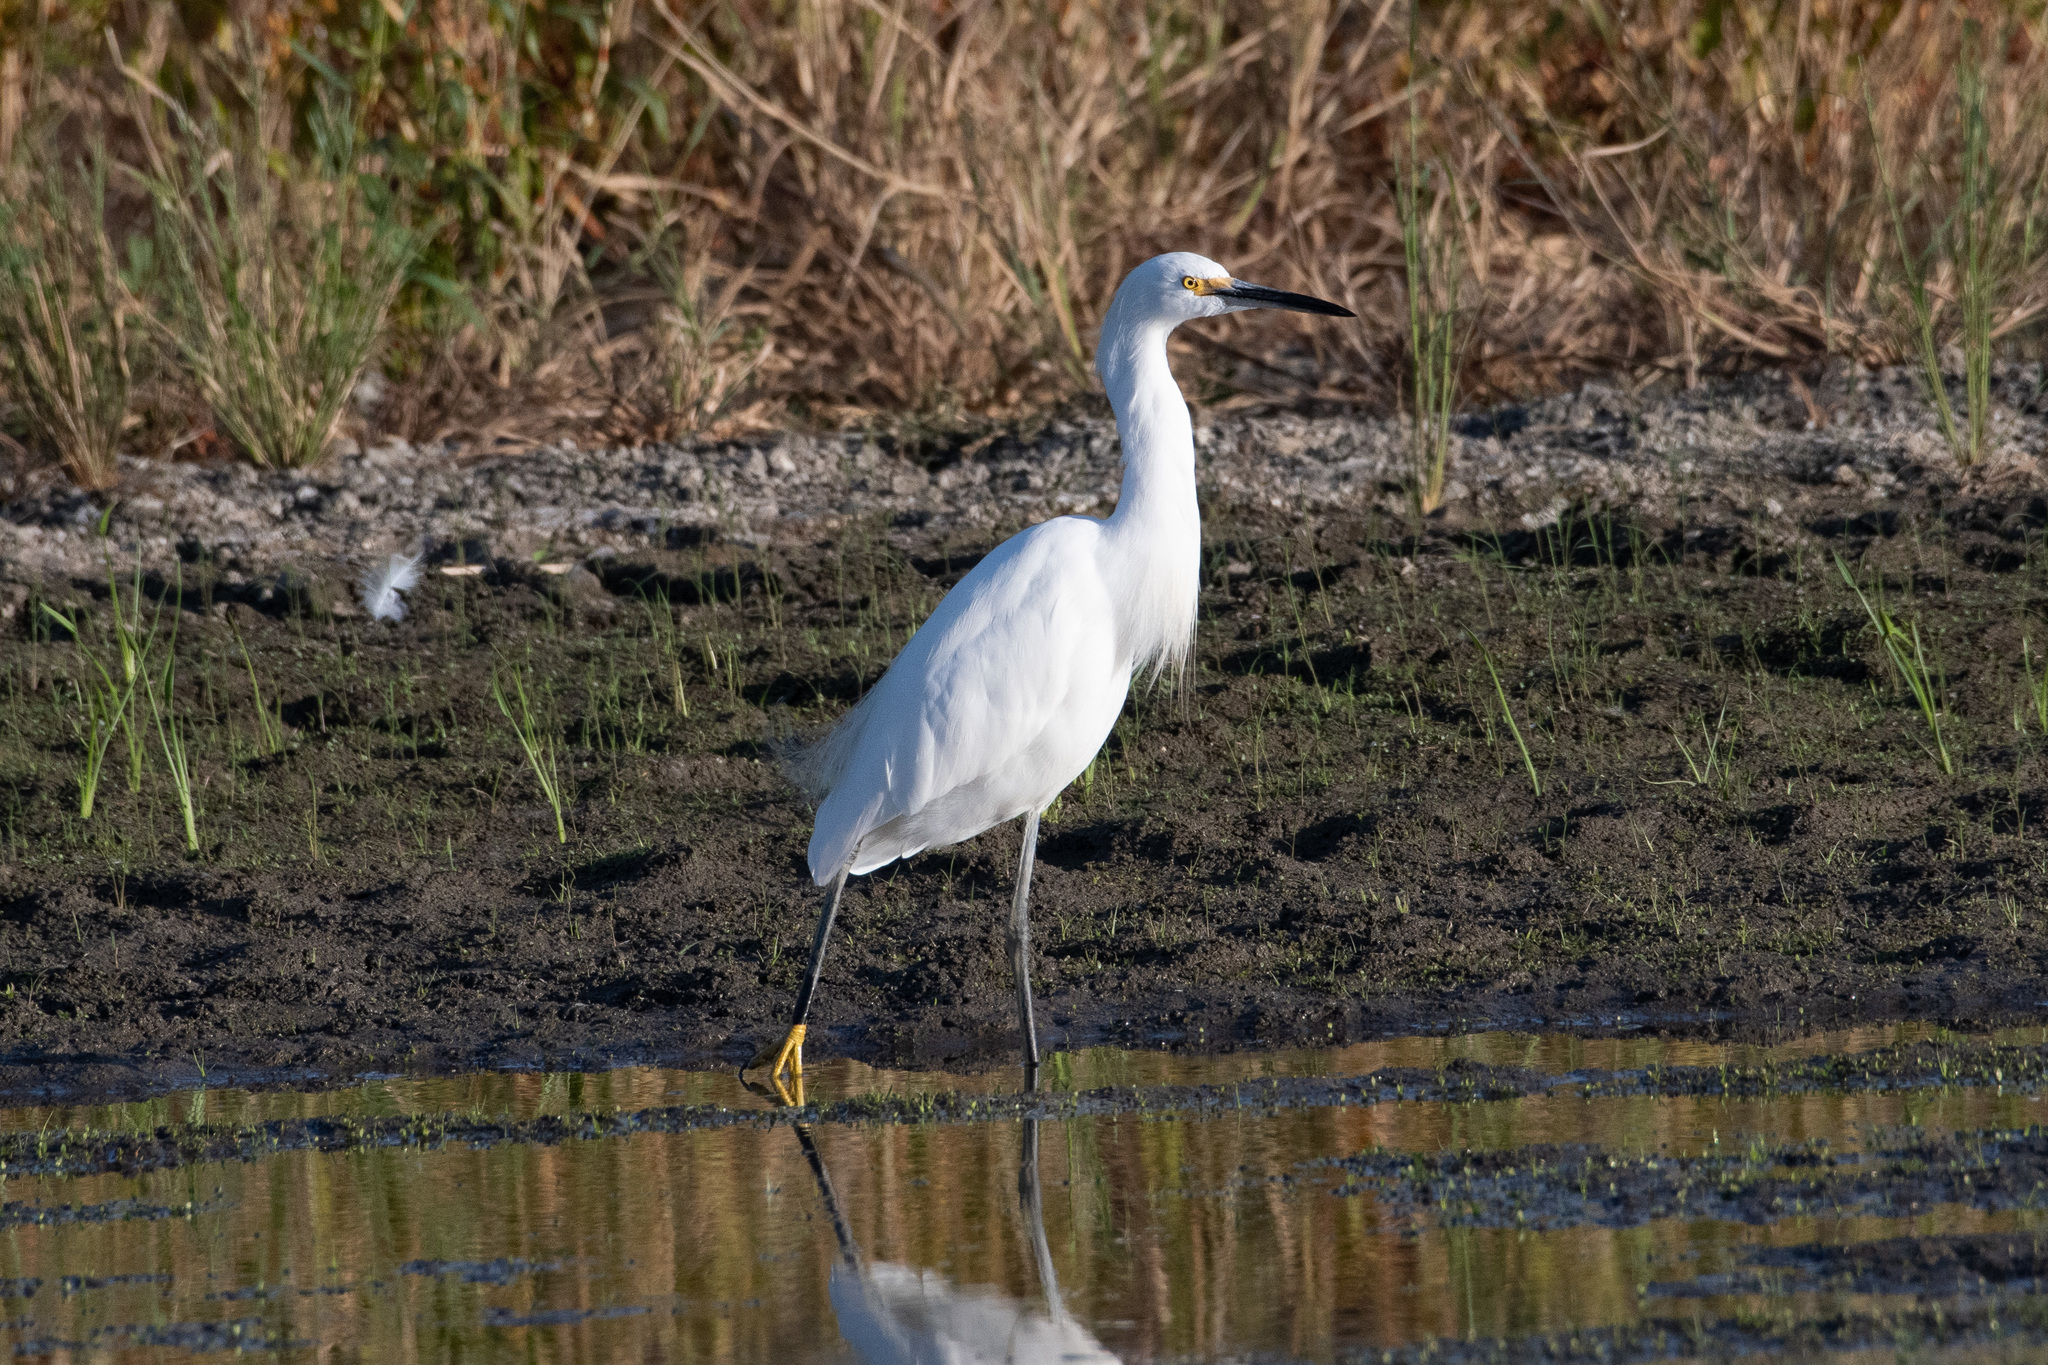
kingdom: Animalia
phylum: Chordata
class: Aves
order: Pelecaniformes
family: Ardeidae
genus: Egretta
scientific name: Egretta thula
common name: Snowy egret
